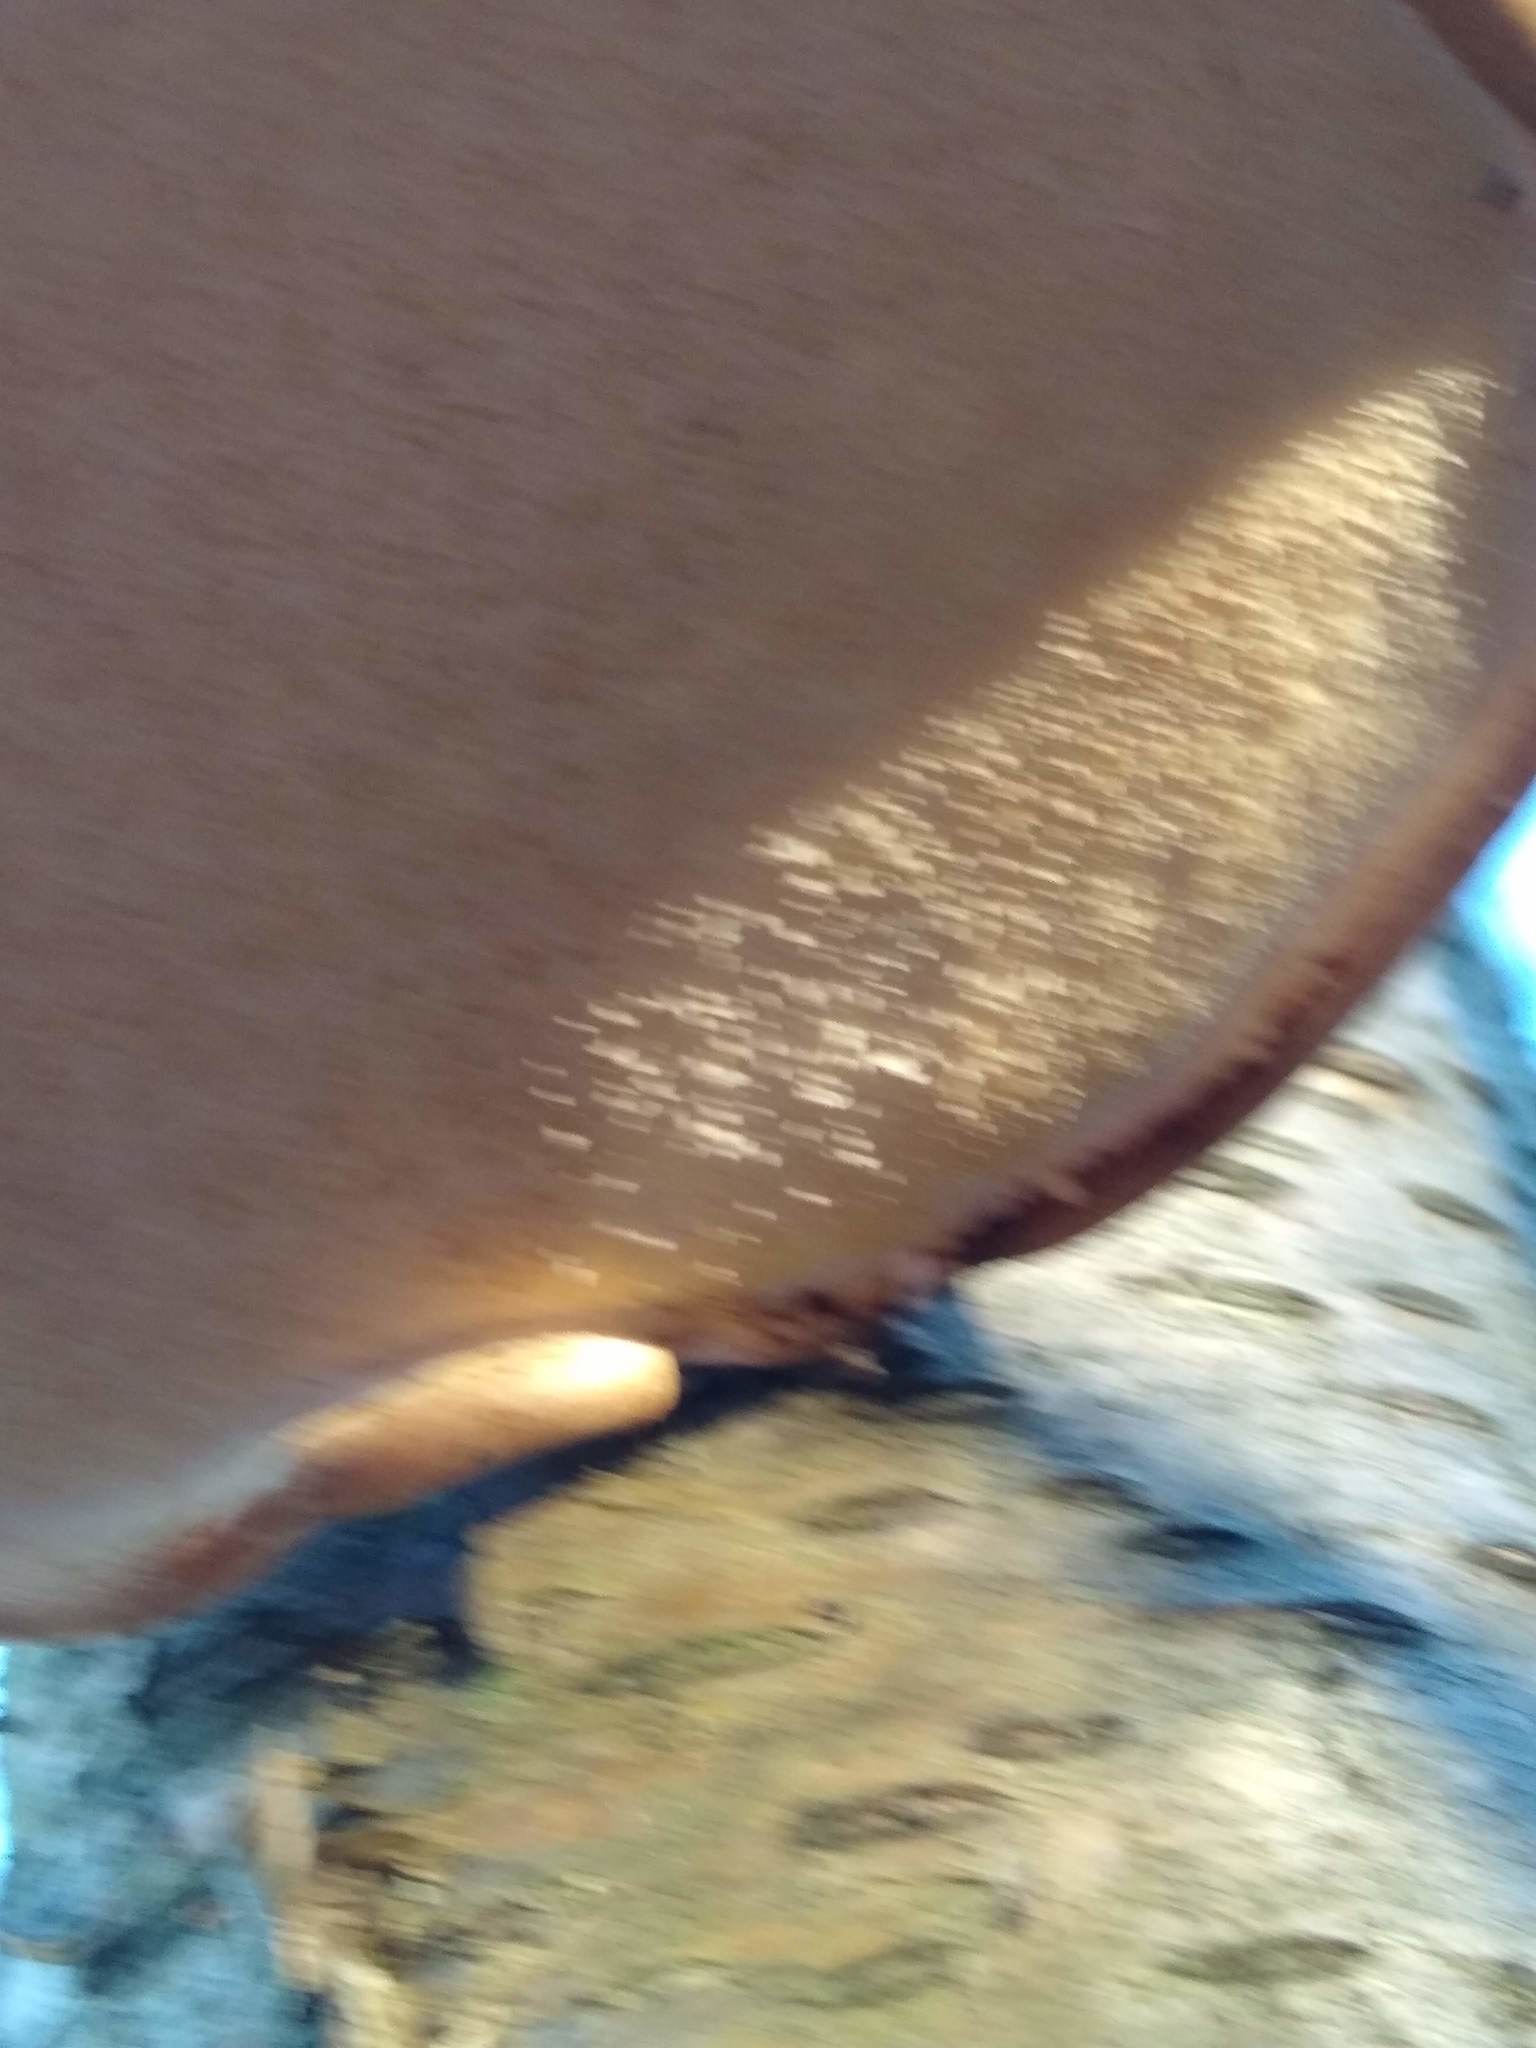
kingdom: Fungi
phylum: Basidiomycota
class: Agaricomycetes
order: Polyporales
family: Fomitopsidaceae
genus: Fomitopsis
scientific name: Fomitopsis betulina
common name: Birch polypore
